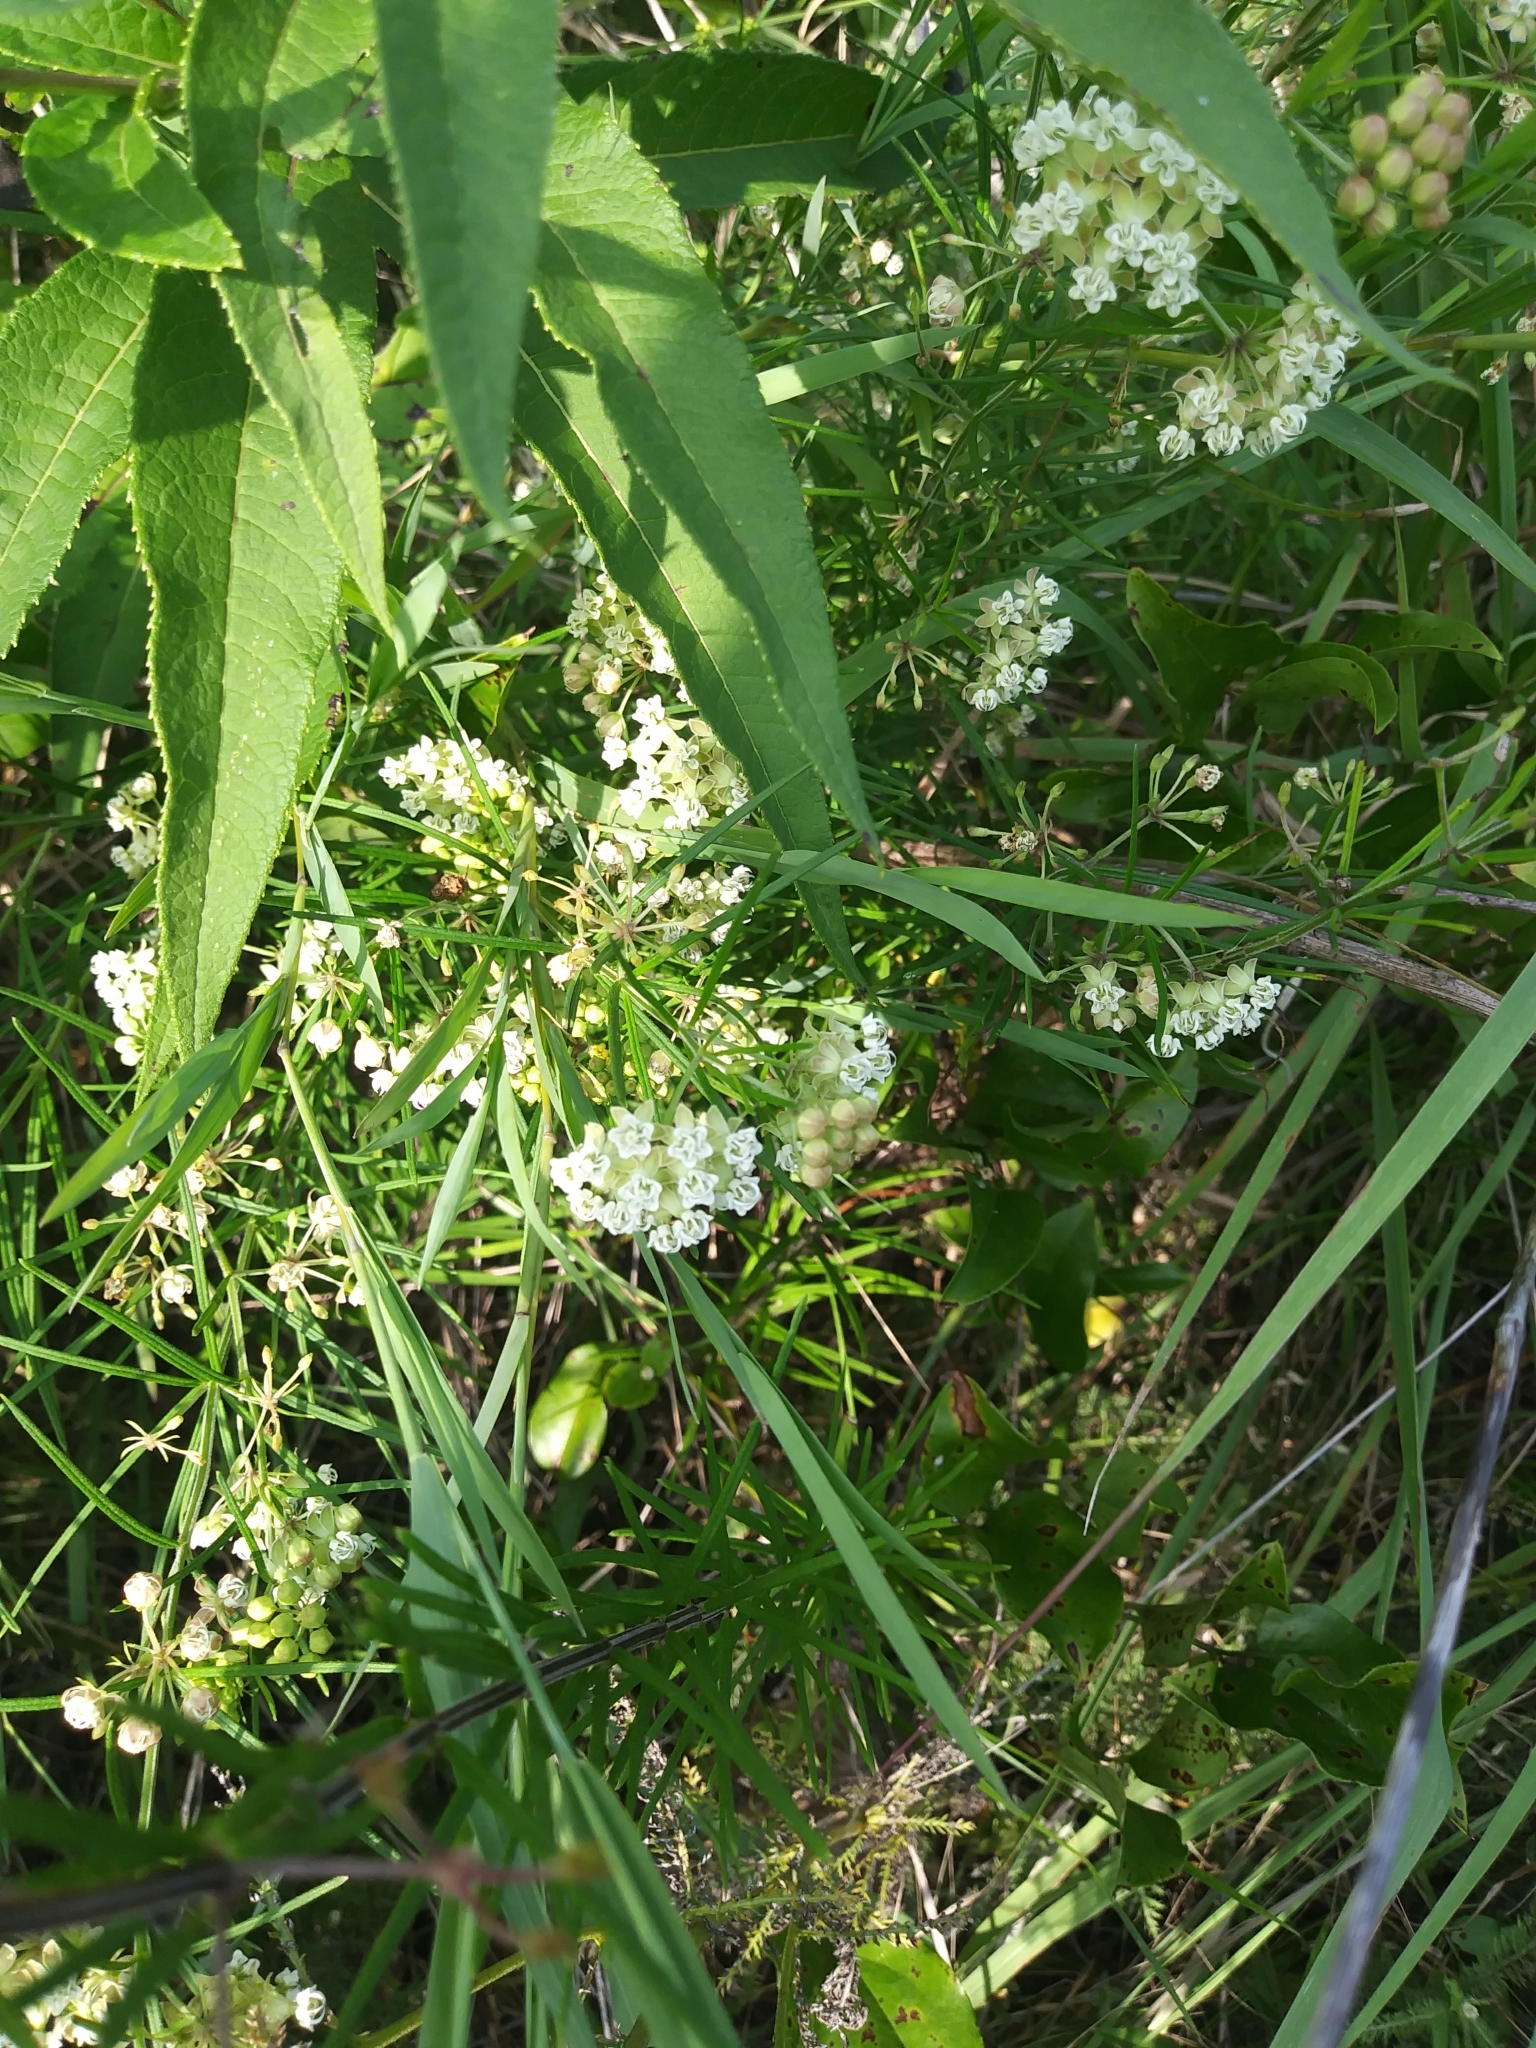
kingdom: Plantae
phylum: Tracheophyta
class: Magnoliopsida
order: Gentianales
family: Apocynaceae
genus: Asclepias
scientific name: Asclepias verticillata
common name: Eastern whorled milkweed
